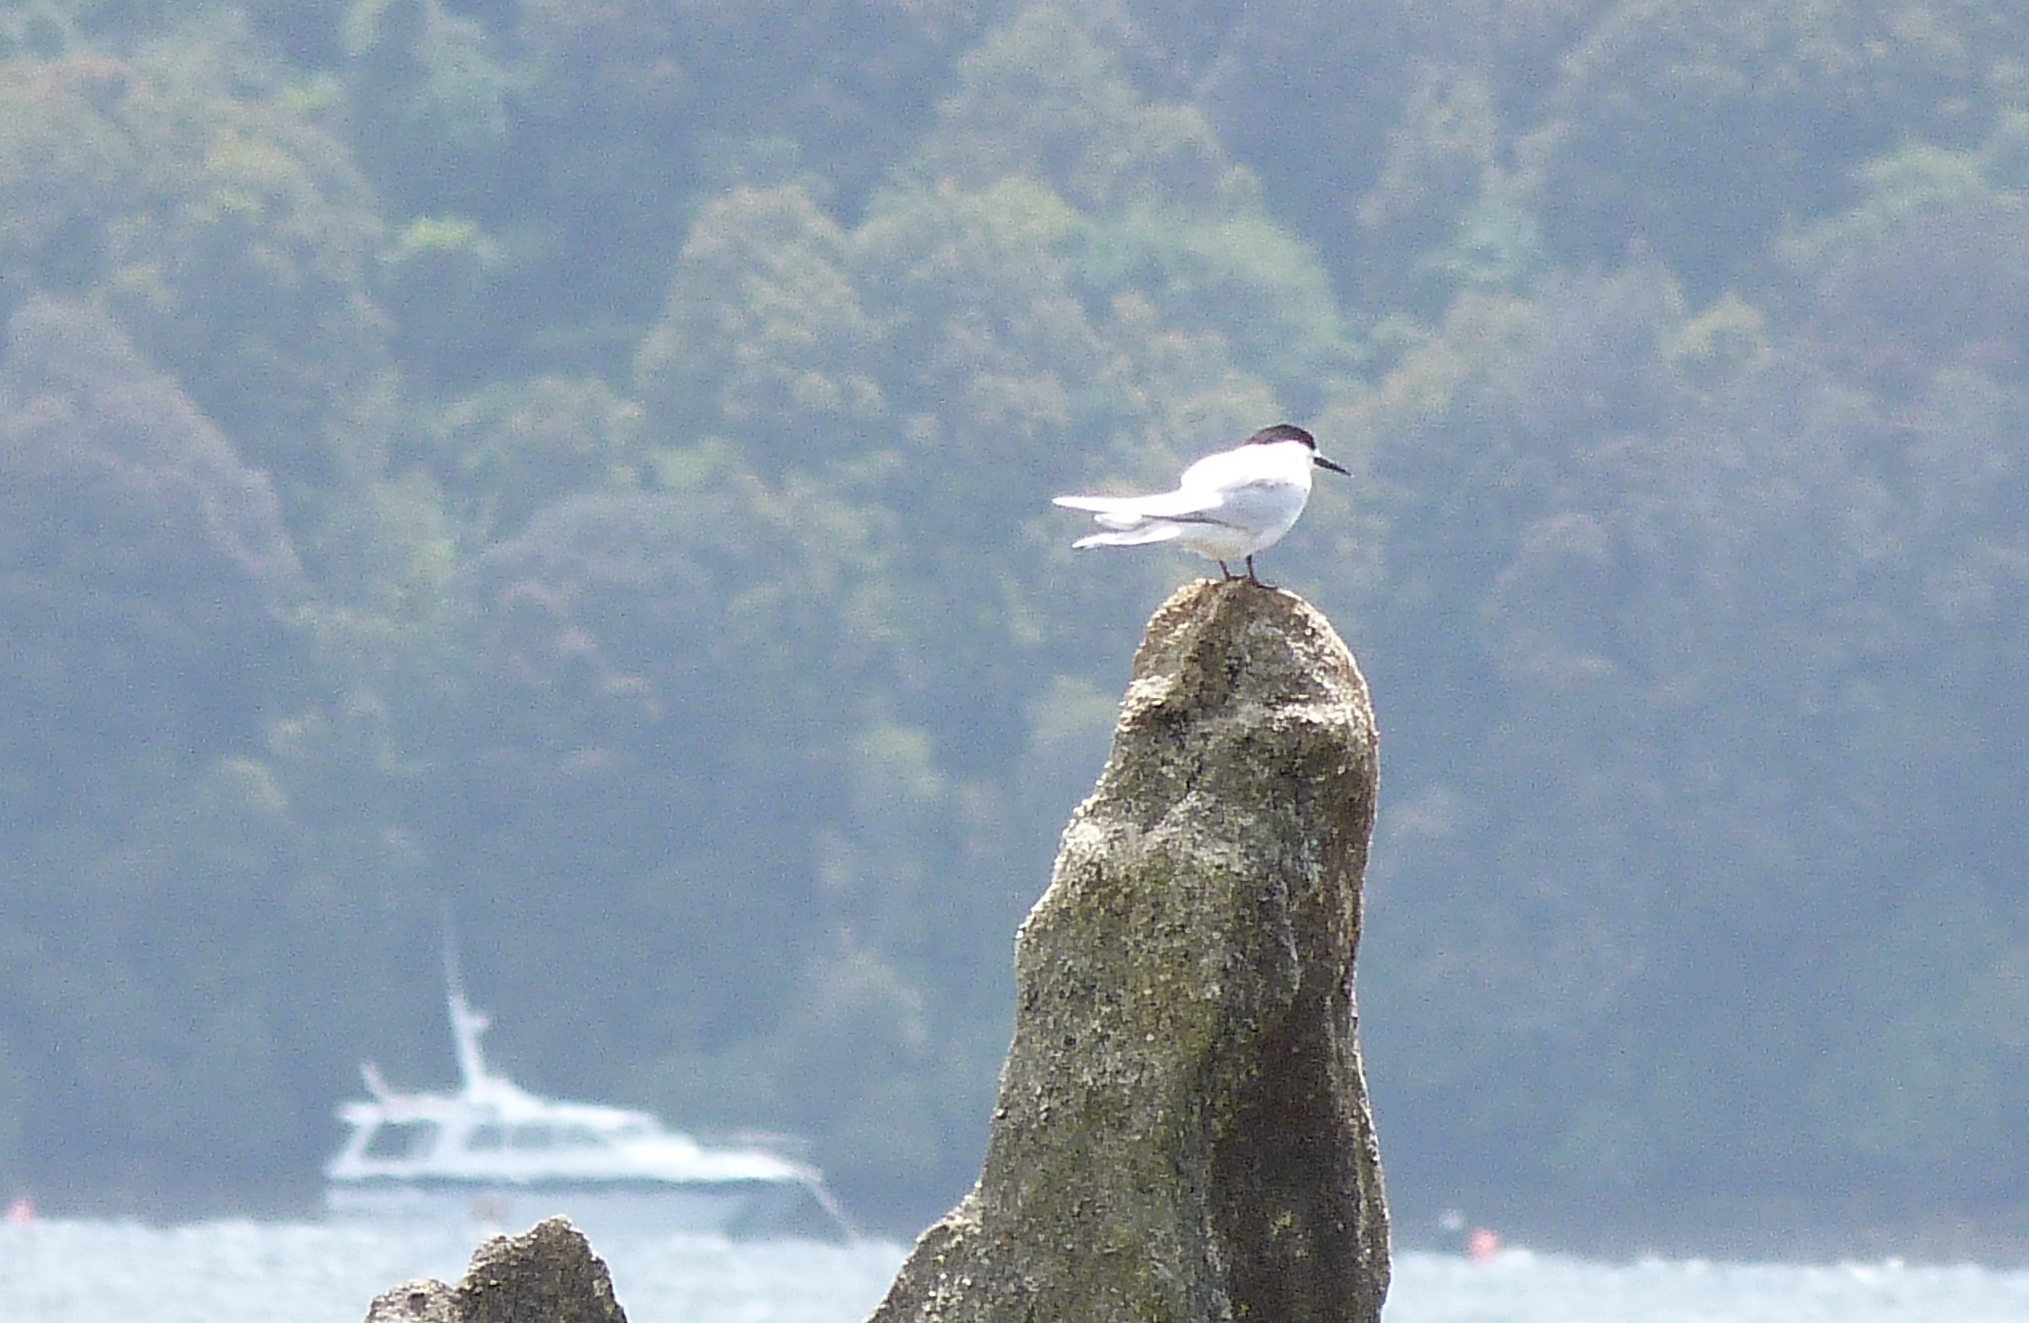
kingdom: Animalia
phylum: Chordata
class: Aves
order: Charadriiformes
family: Laridae
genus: Sterna
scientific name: Sterna striata
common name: White-fronted tern
